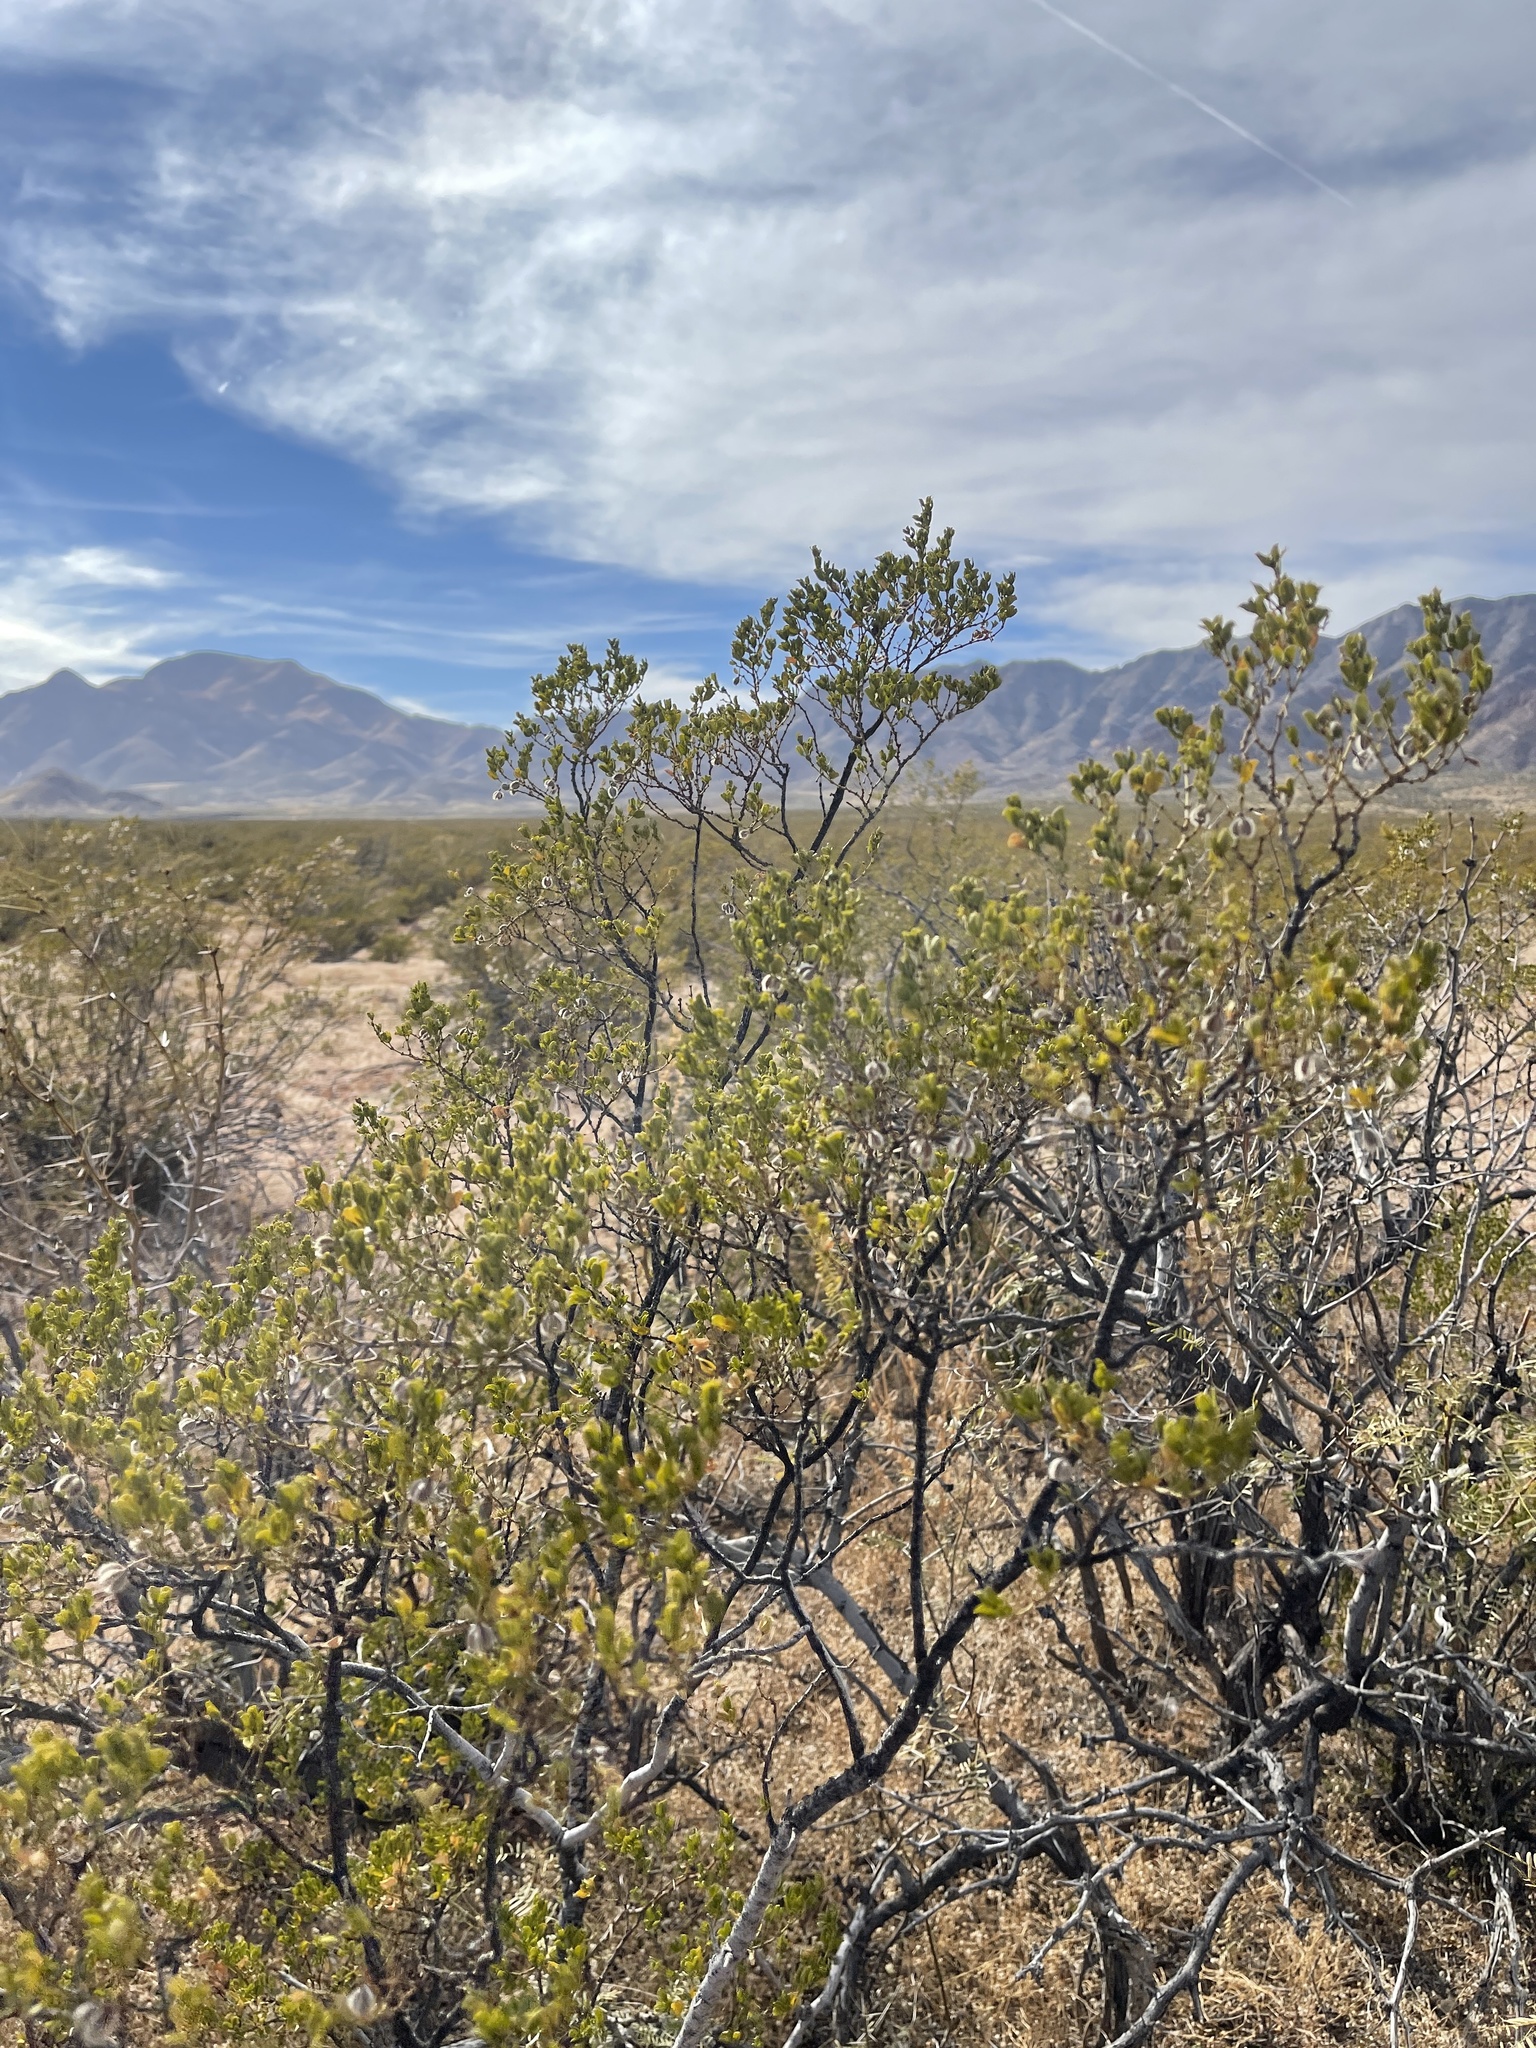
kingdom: Plantae
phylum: Tracheophyta
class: Magnoliopsida
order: Zygophyllales
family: Zygophyllaceae
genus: Larrea
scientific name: Larrea tridentata
